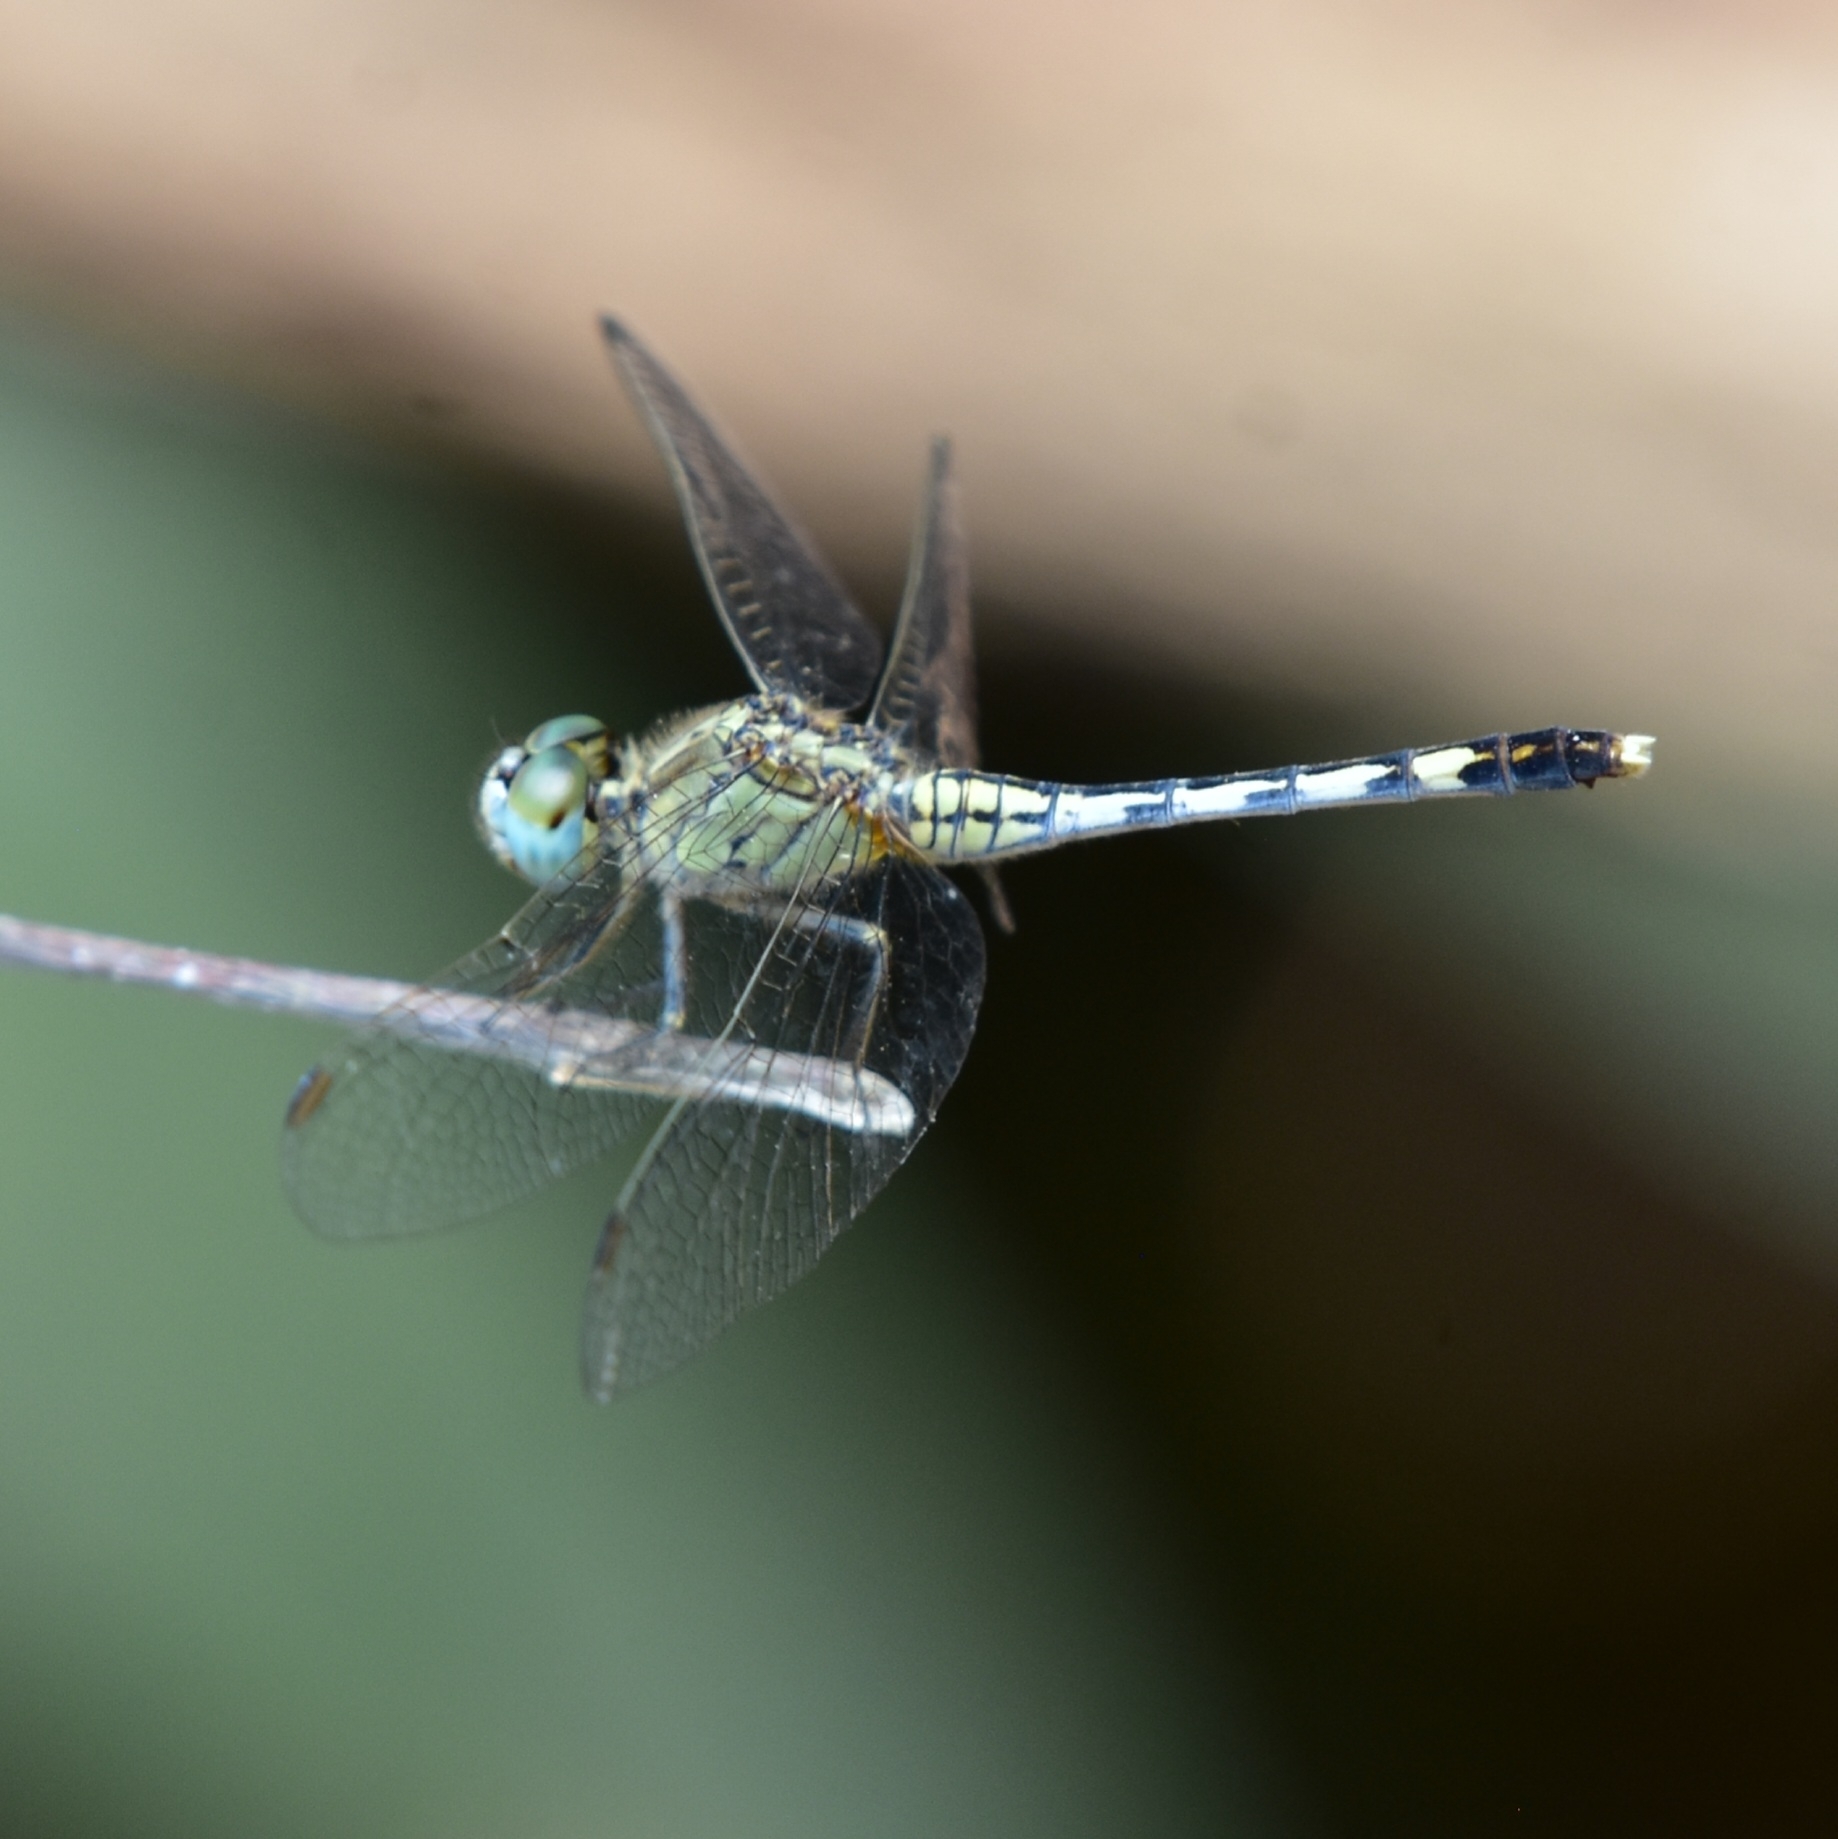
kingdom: Animalia
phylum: Arthropoda
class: Insecta
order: Odonata
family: Libellulidae
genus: Diplacodes
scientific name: Diplacodes trivialis
